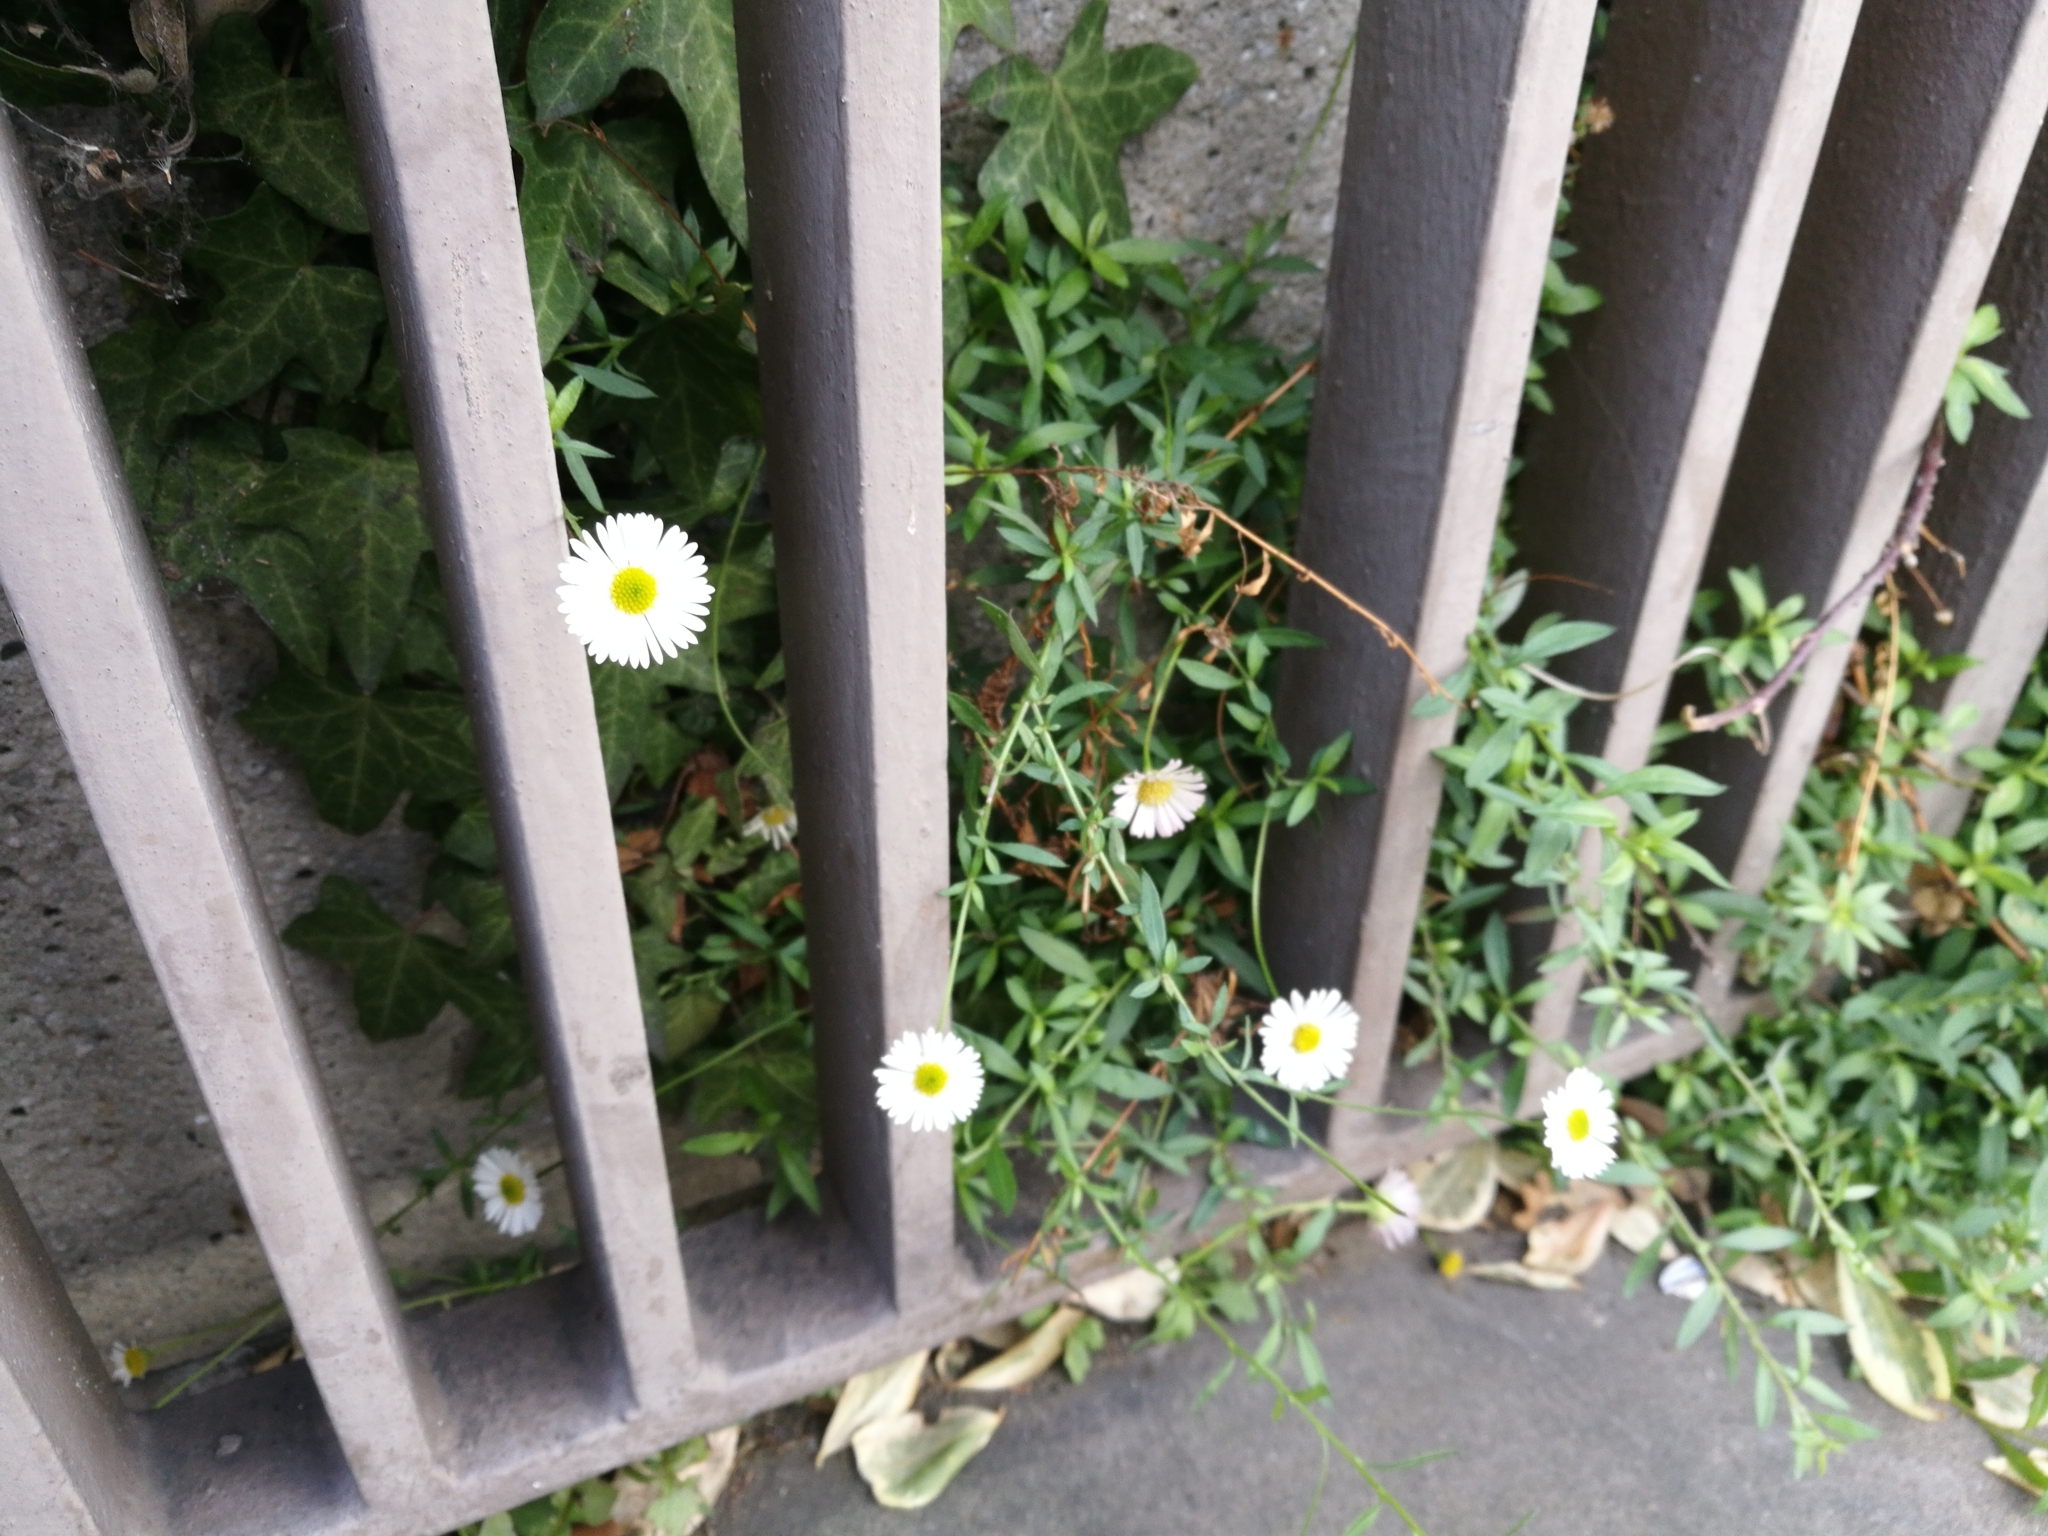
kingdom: Plantae
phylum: Tracheophyta
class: Magnoliopsida
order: Asterales
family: Asteraceae
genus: Erigeron
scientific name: Erigeron karvinskianus
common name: Mexican fleabane
